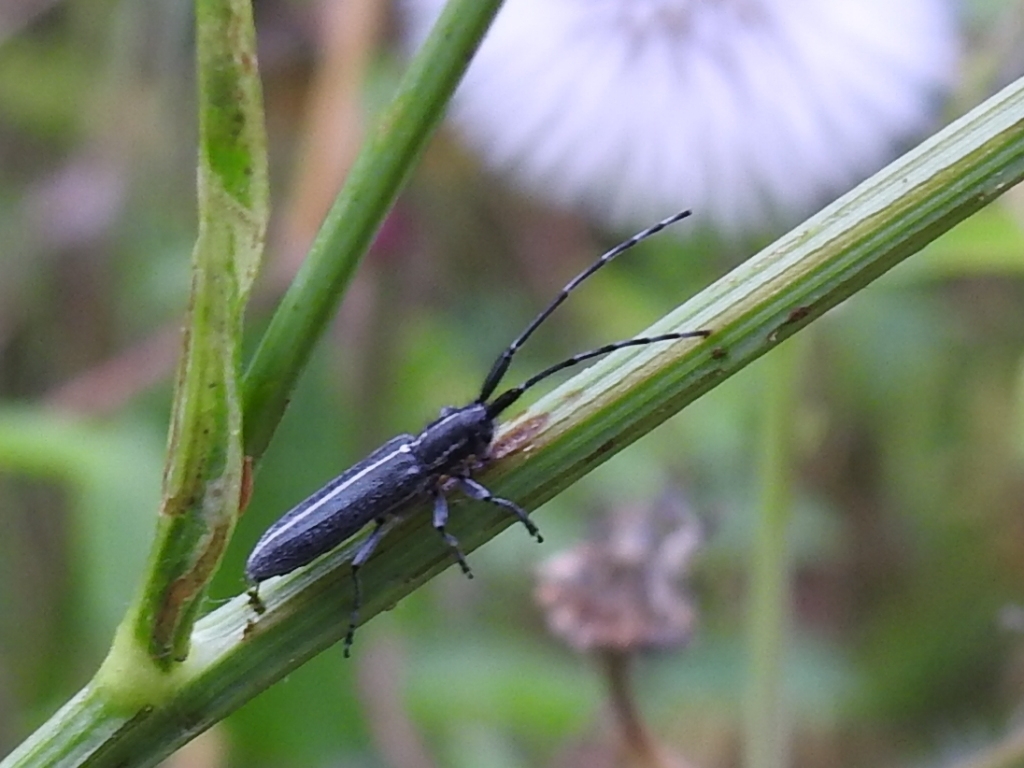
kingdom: Animalia
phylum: Arthropoda
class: Insecta
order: Coleoptera
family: Cerambycidae
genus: Agapanthia
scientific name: Agapanthia cardui
